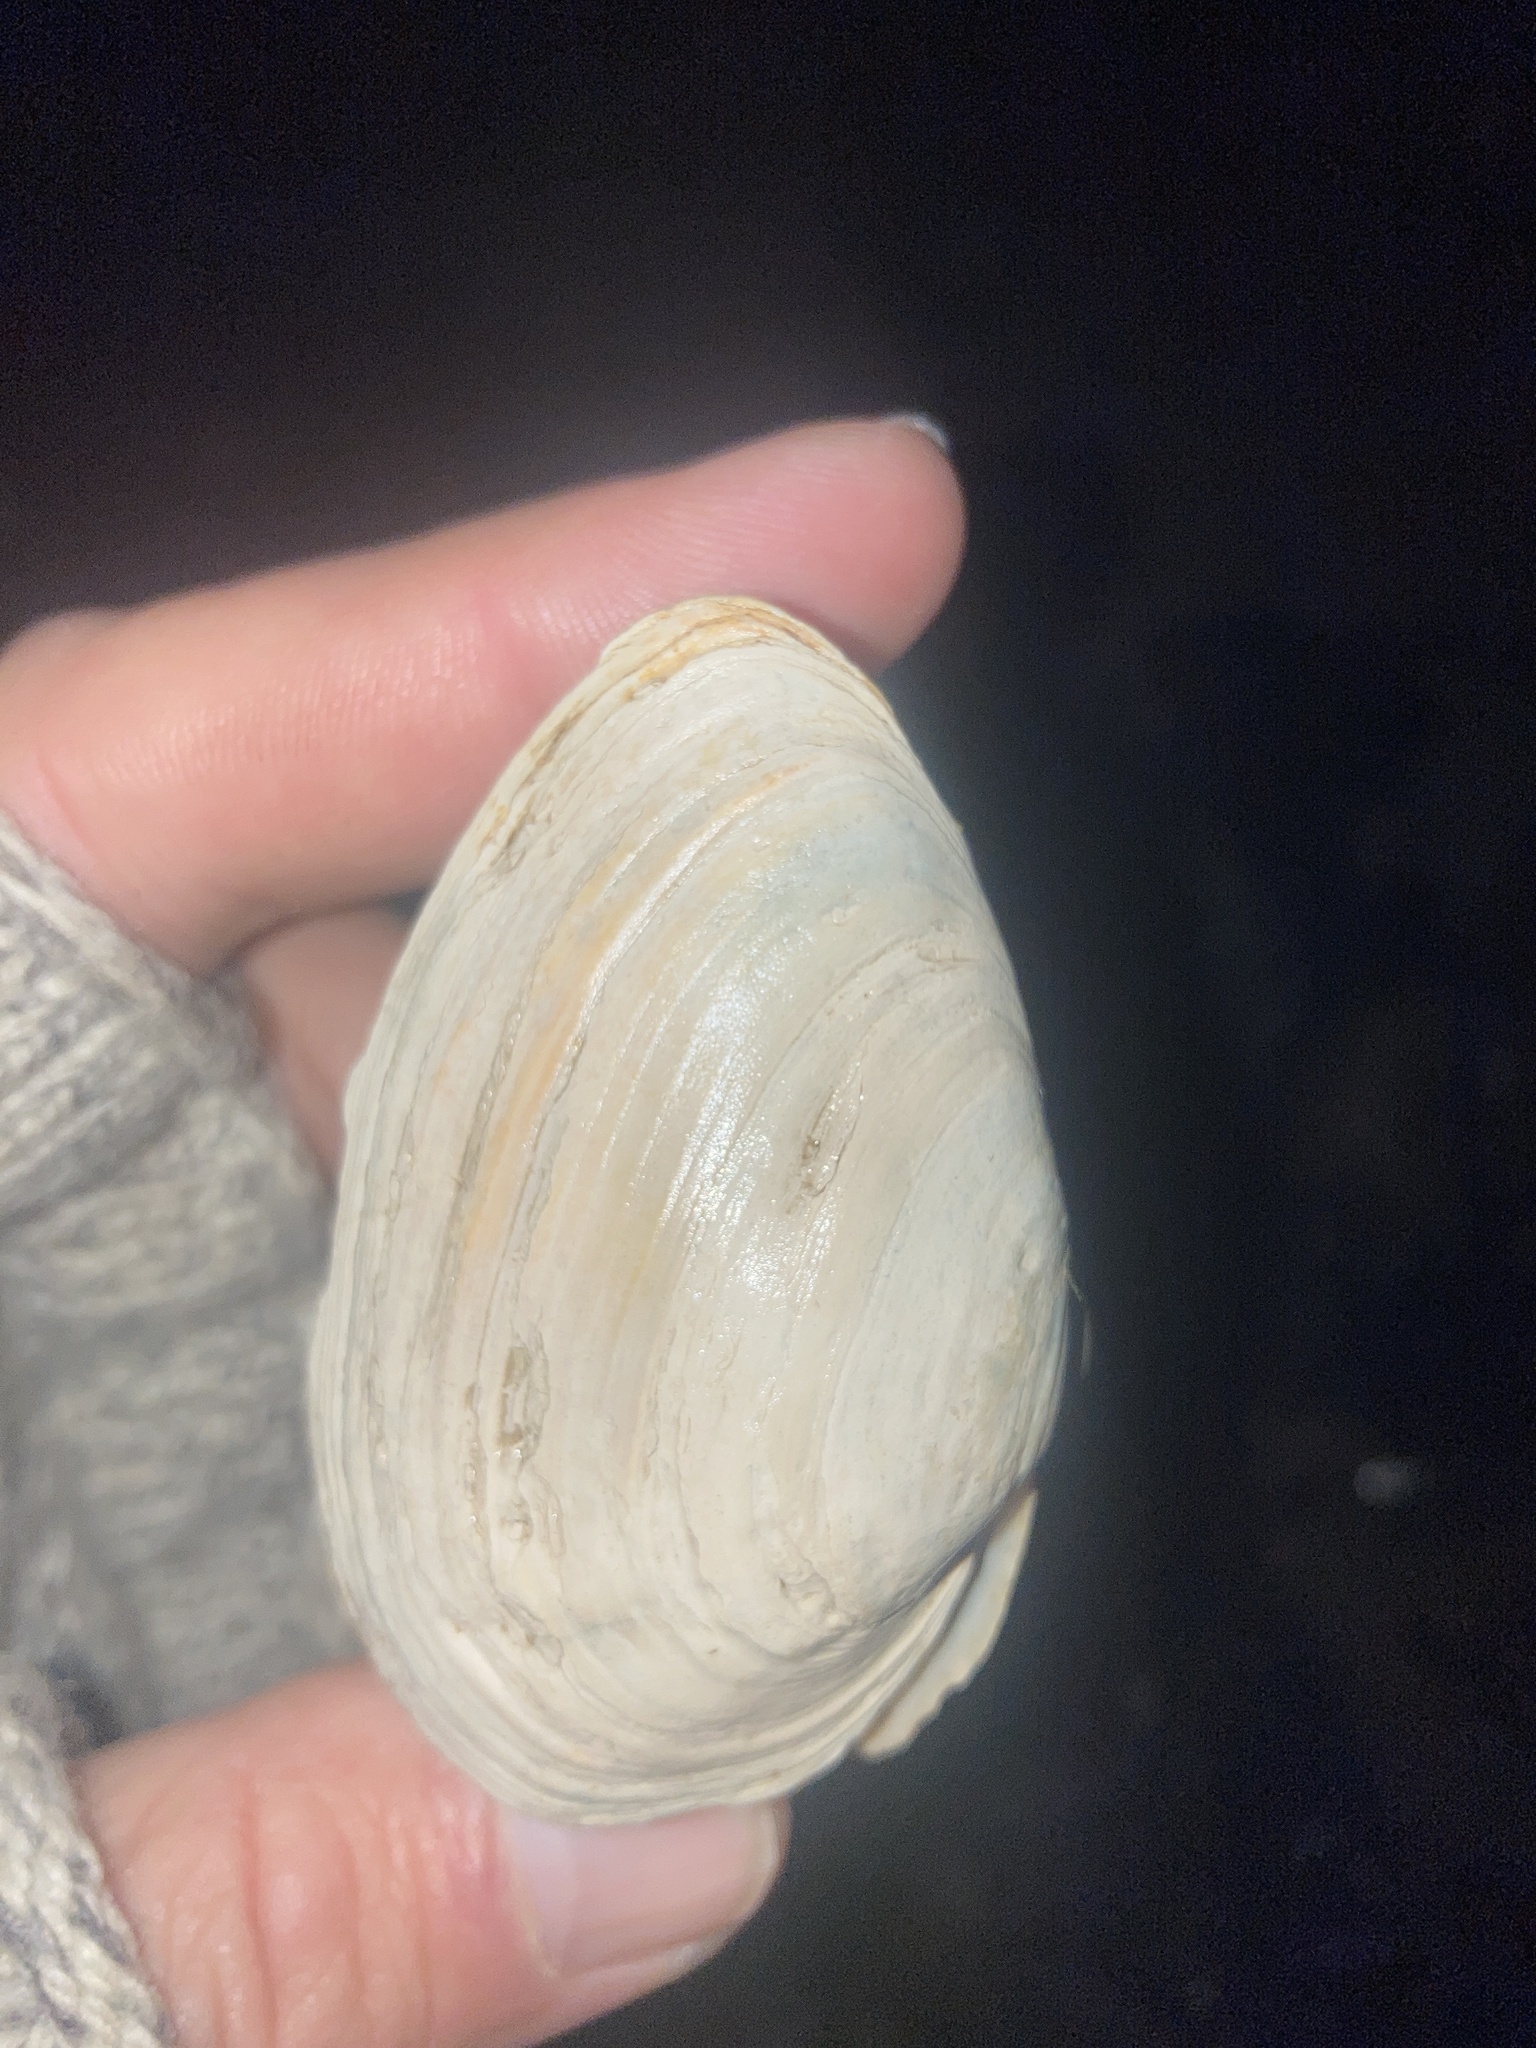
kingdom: Animalia
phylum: Mollusca
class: Bivalvia
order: Myida
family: Myidae
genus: Mya
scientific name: Mya arenaria
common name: Soft-shelled clam
